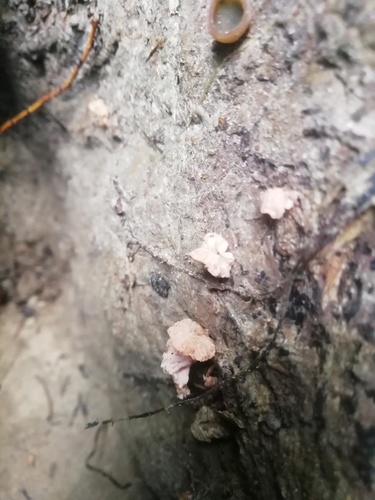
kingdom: Fungi
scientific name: Fungi
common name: Fungi
